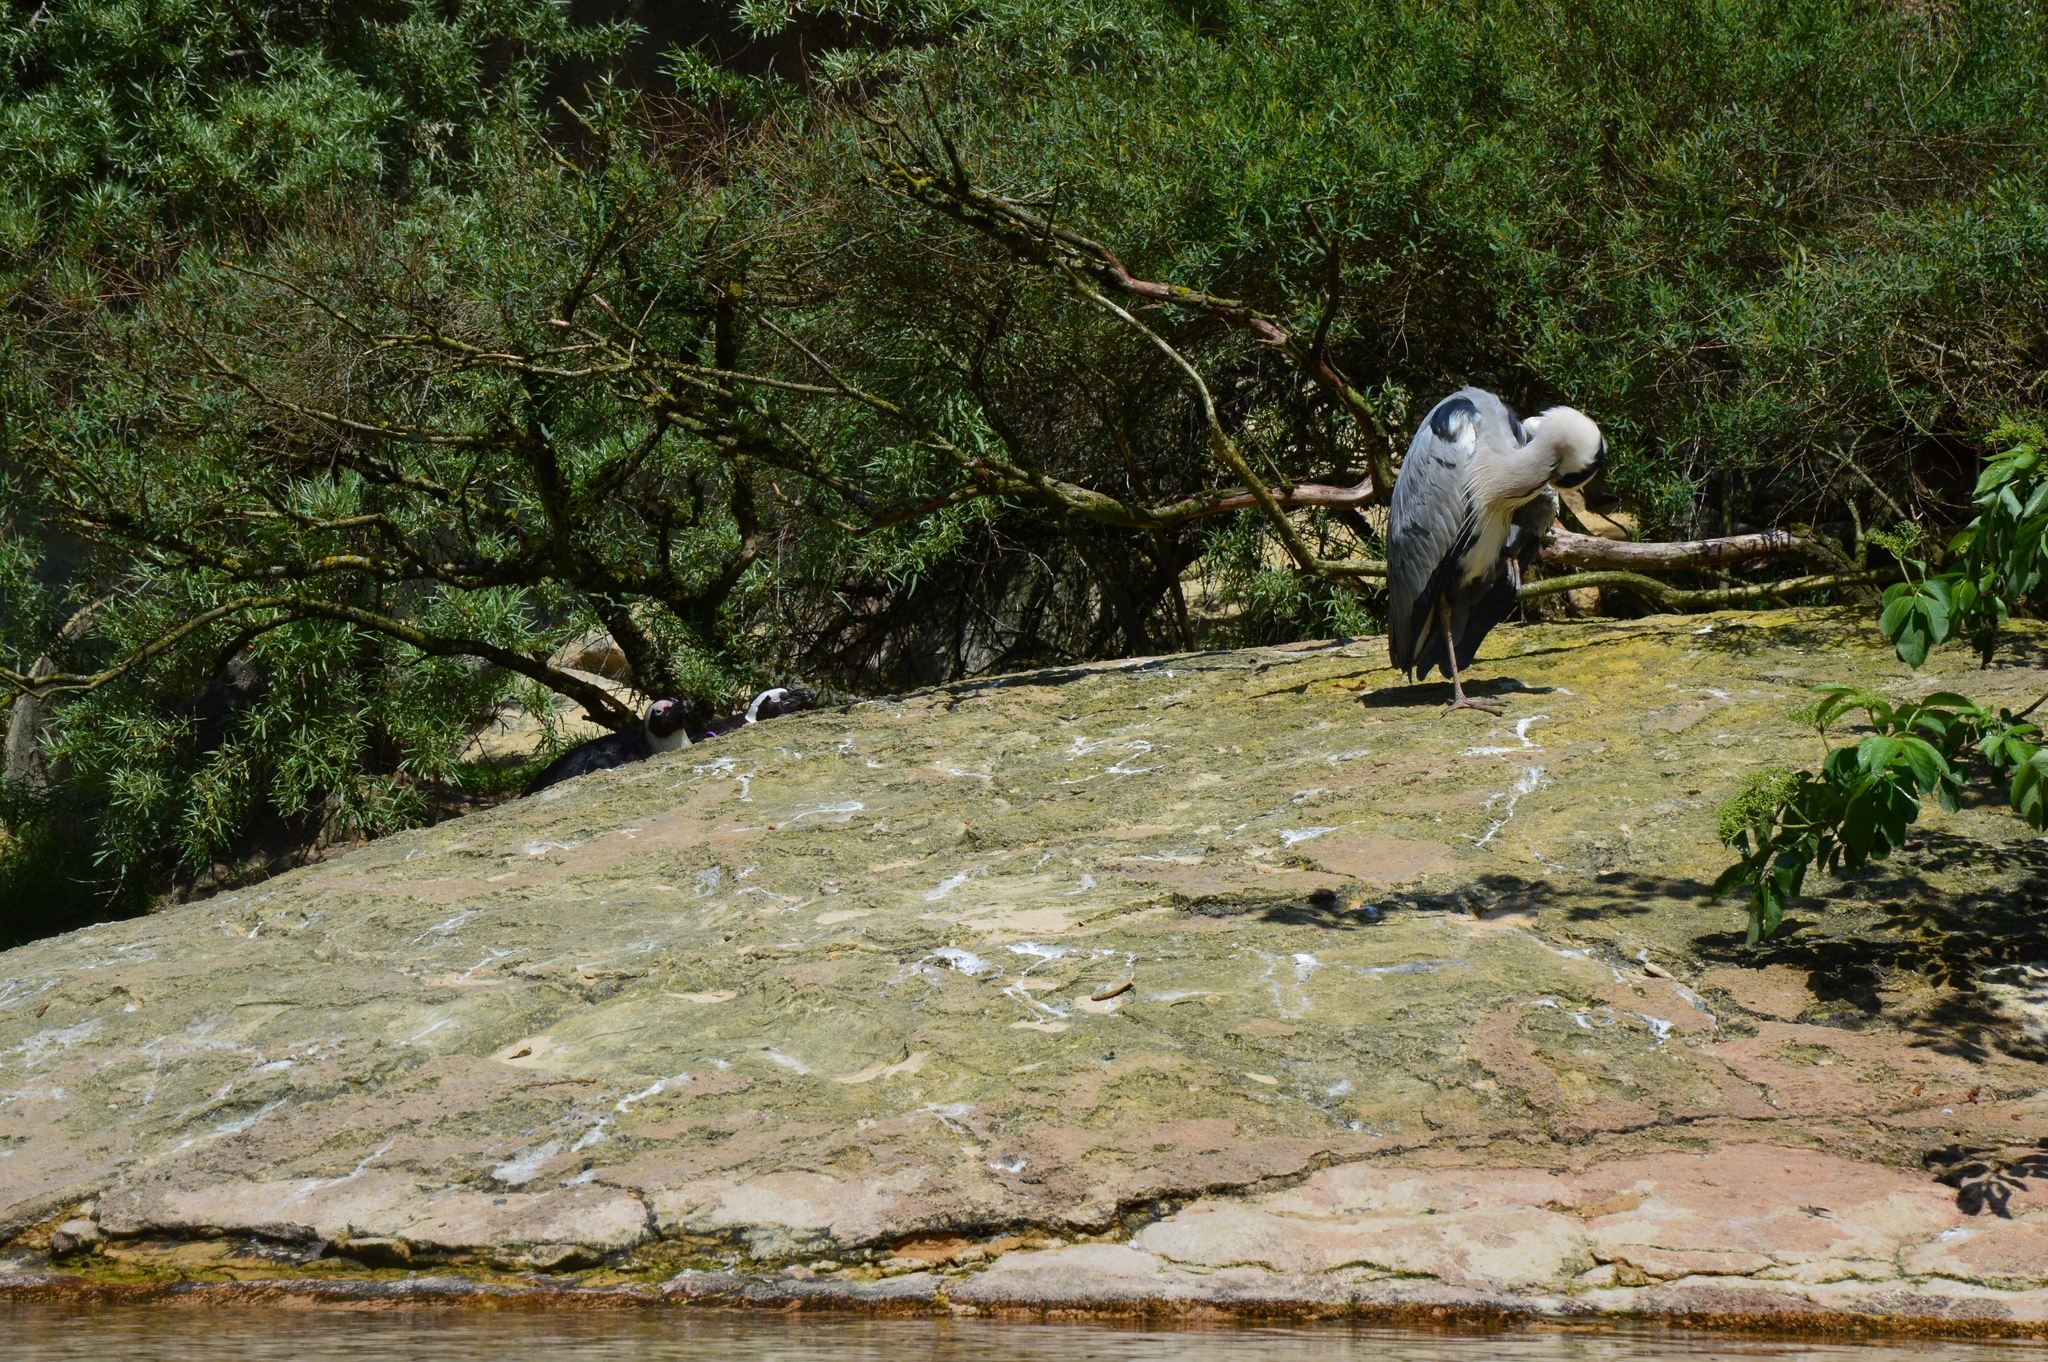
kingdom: Animalia
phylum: Chordata
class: Aves
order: Pelecaniformes
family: Ardeidae
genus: Ardea
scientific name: Ardea cinerea
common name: Grey heron
